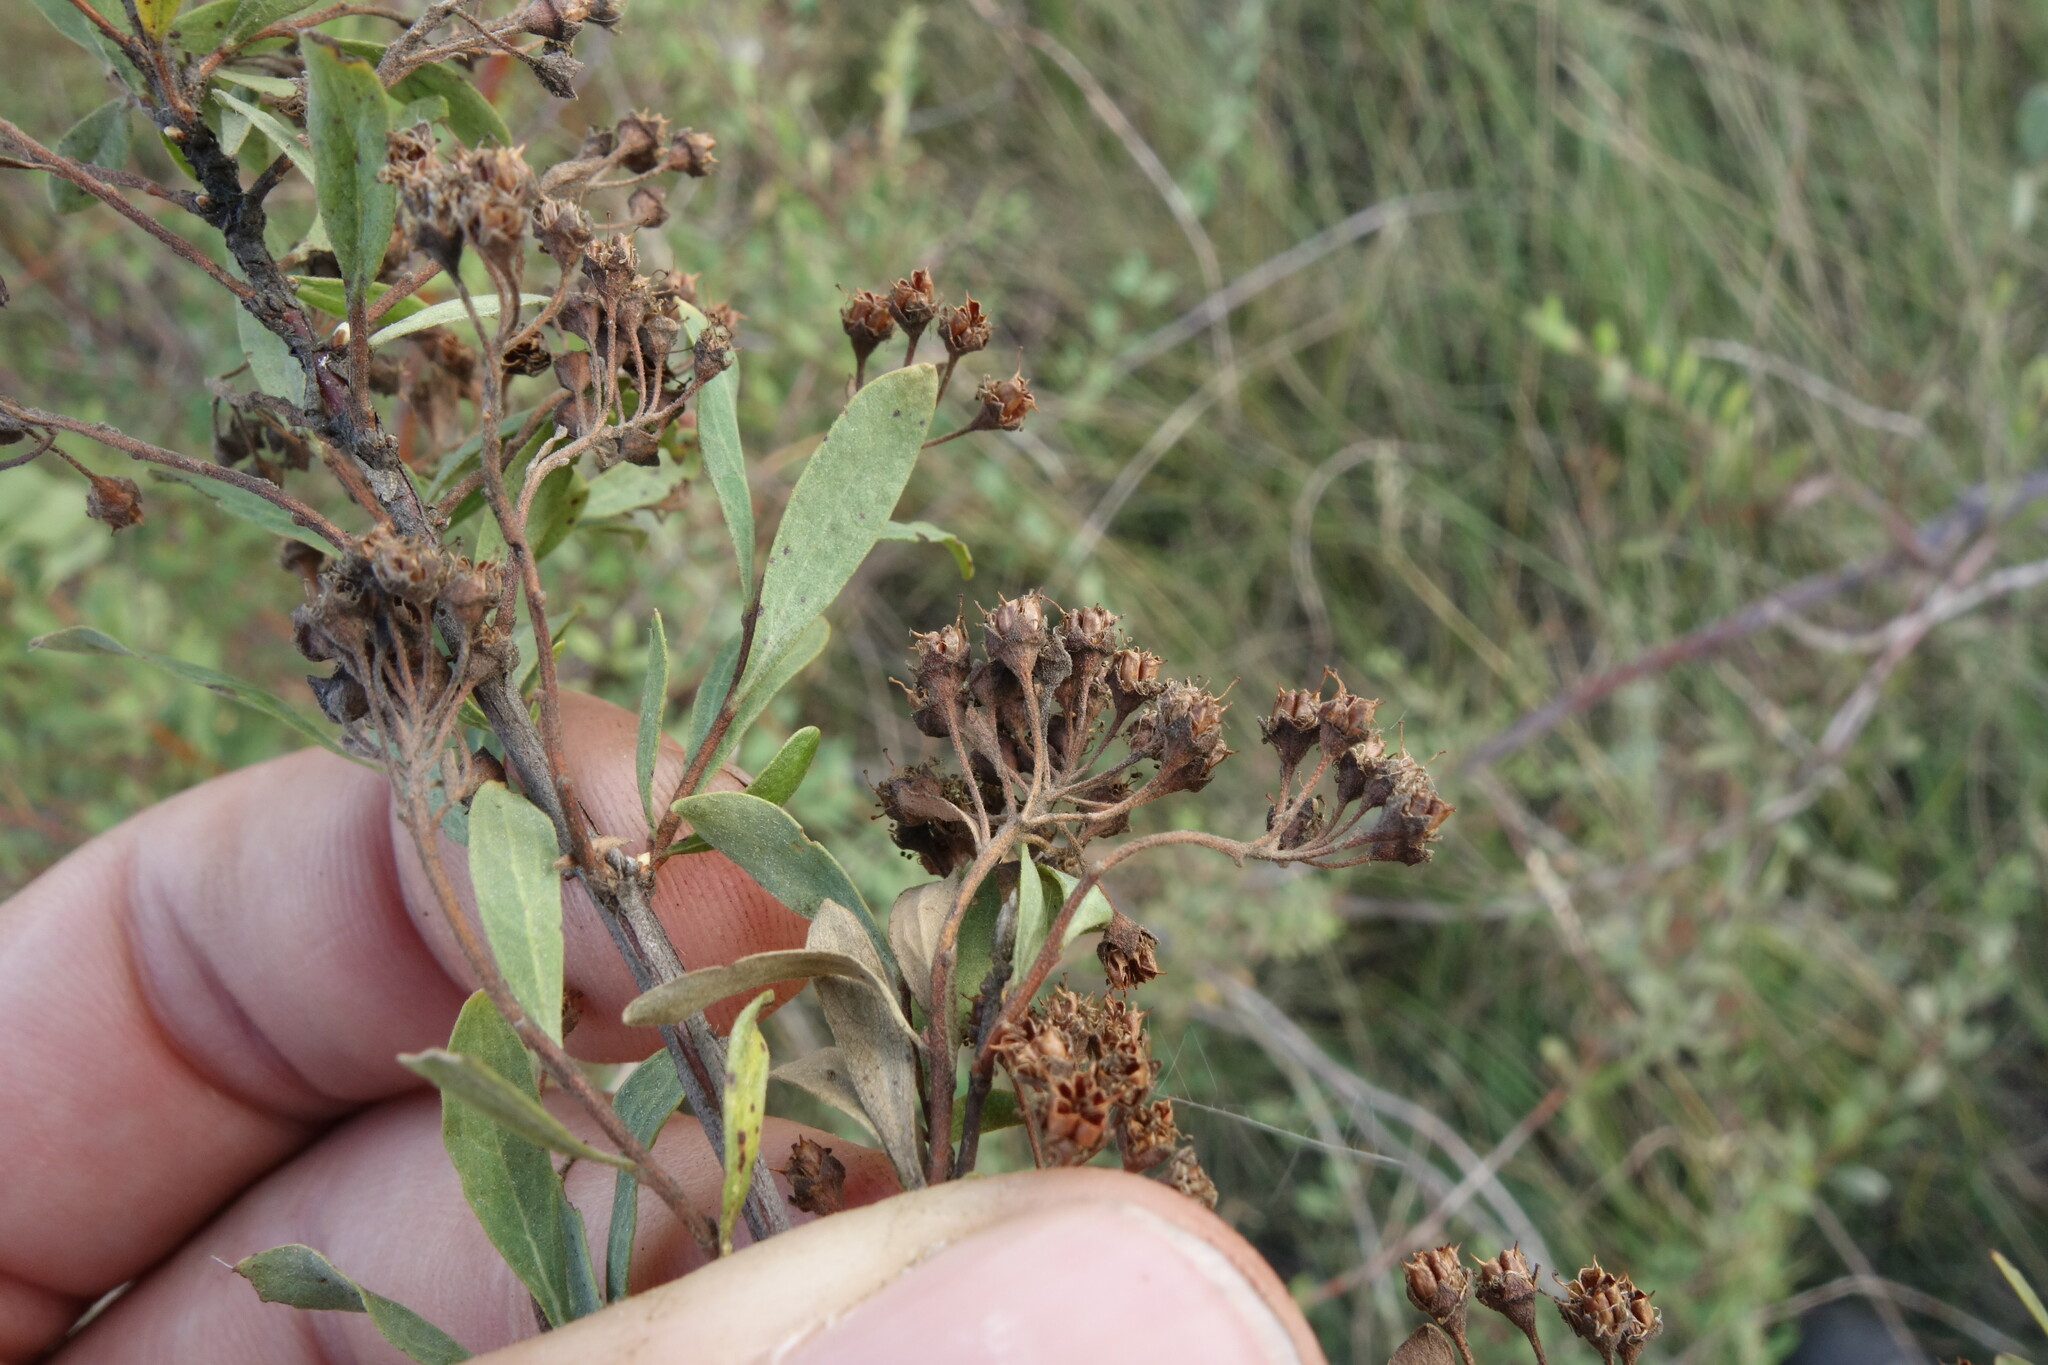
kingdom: Plantae
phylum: Tracheophyta
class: Magnoliopsida
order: Rosales
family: Rosaceae
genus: Spiraea
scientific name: Spiraea crenata
